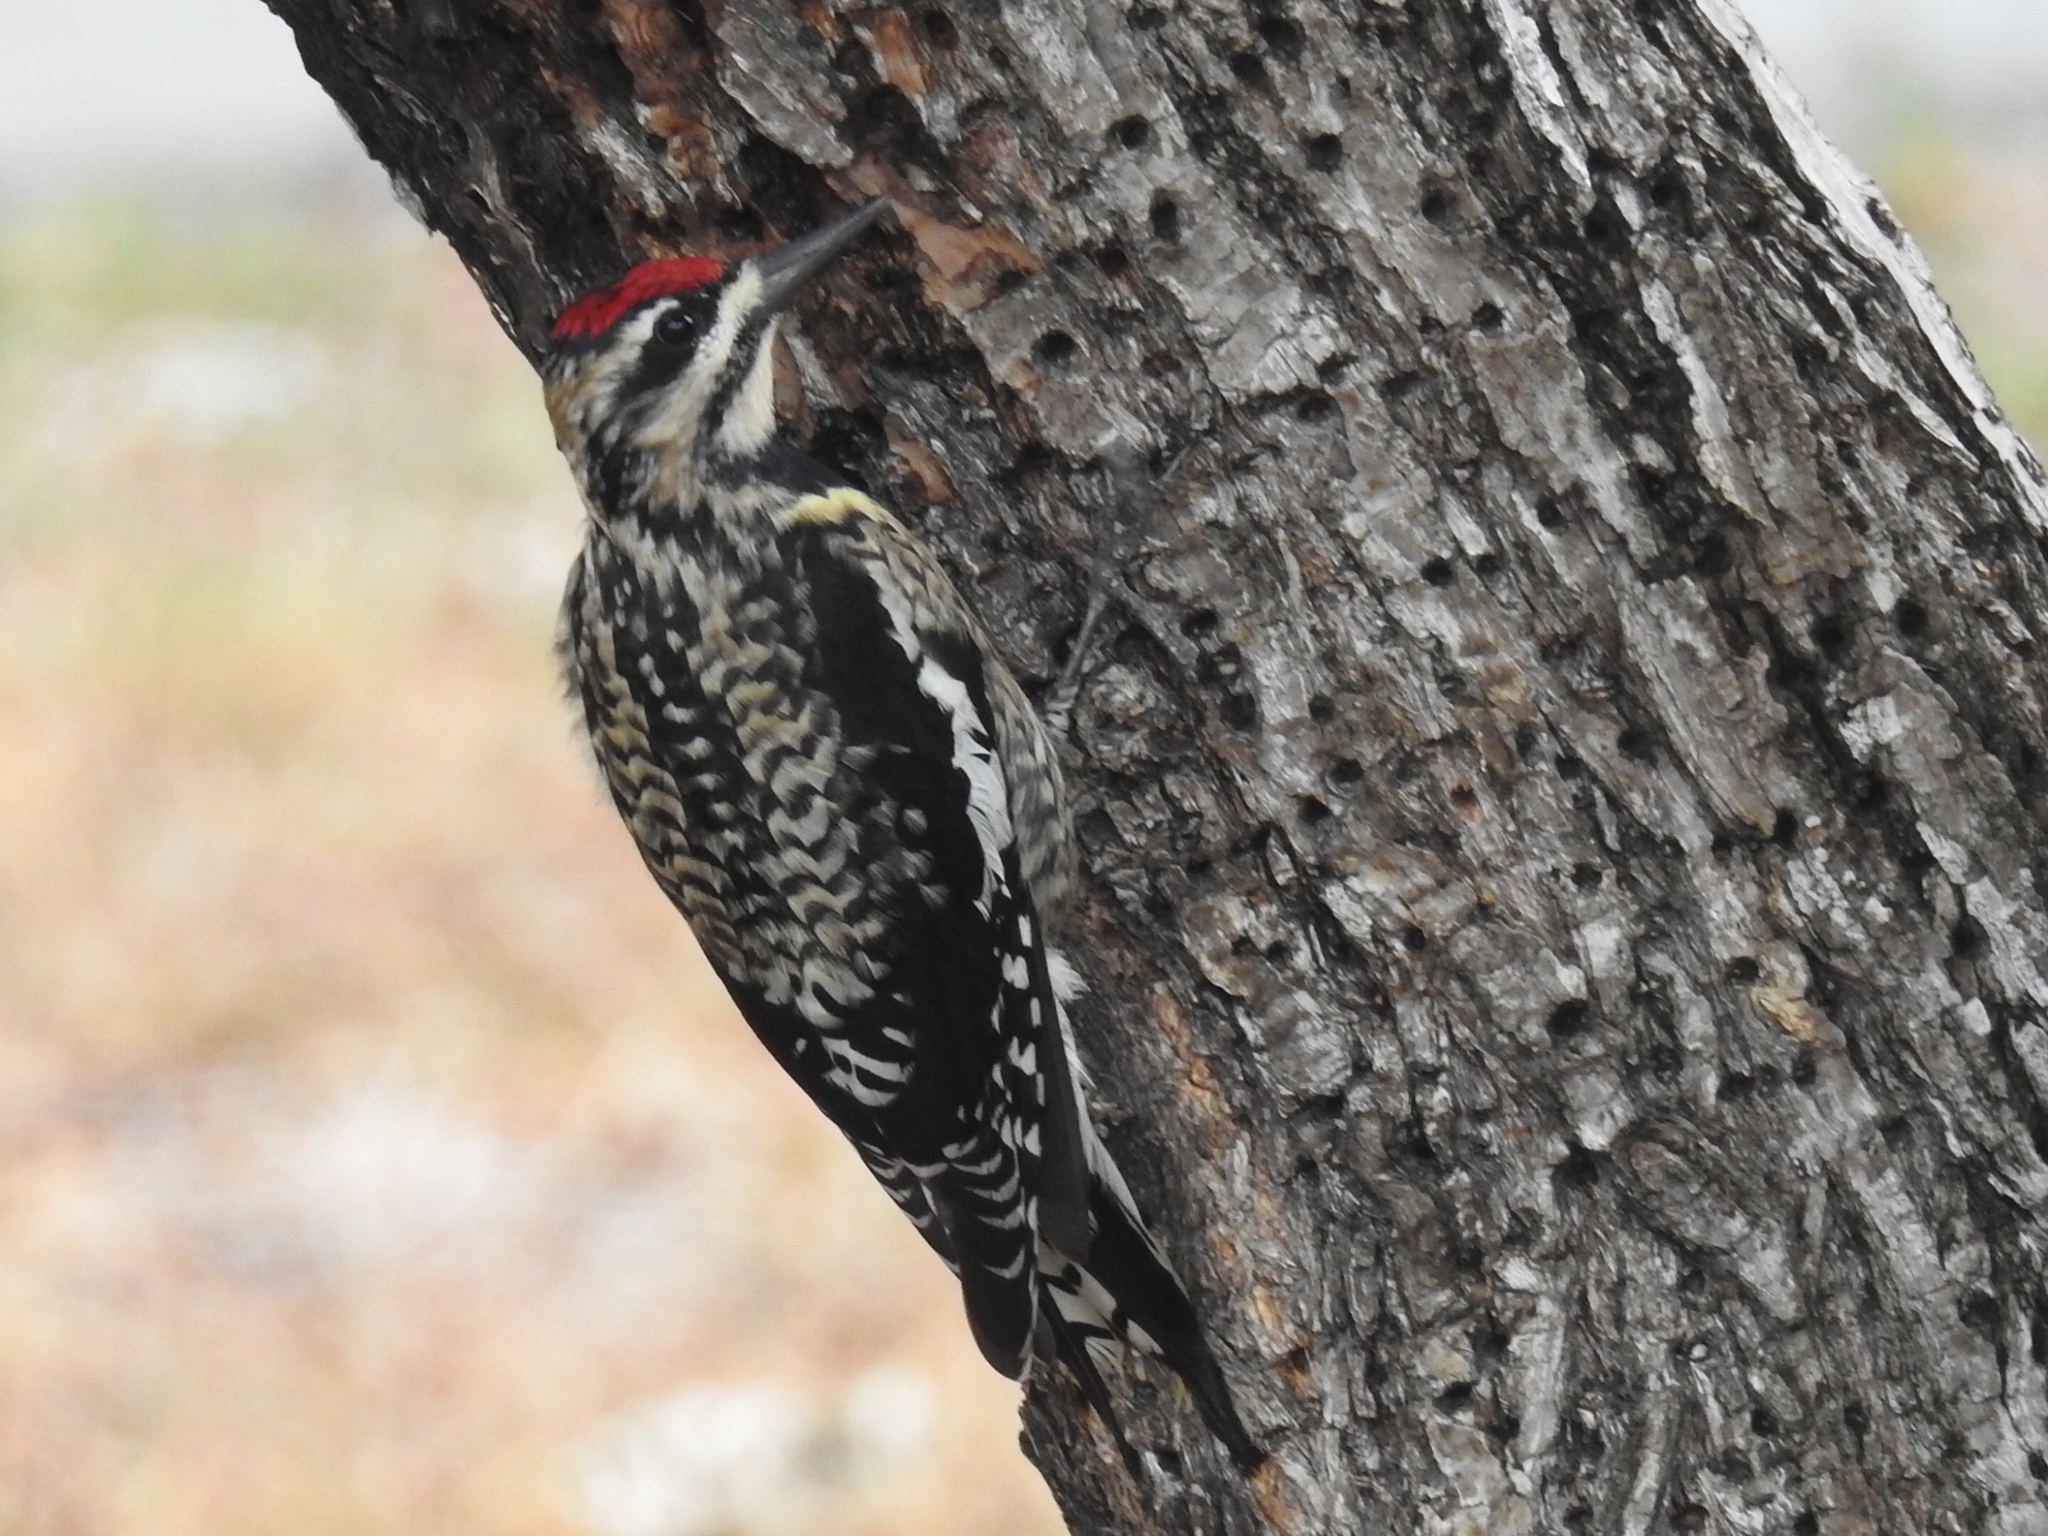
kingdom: Animalia
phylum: Chordata
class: Aves
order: Piciformes
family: Picidae
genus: Sphyrapicus
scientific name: Sphyrapicus varius
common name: Yellow-bellied sapsucker
